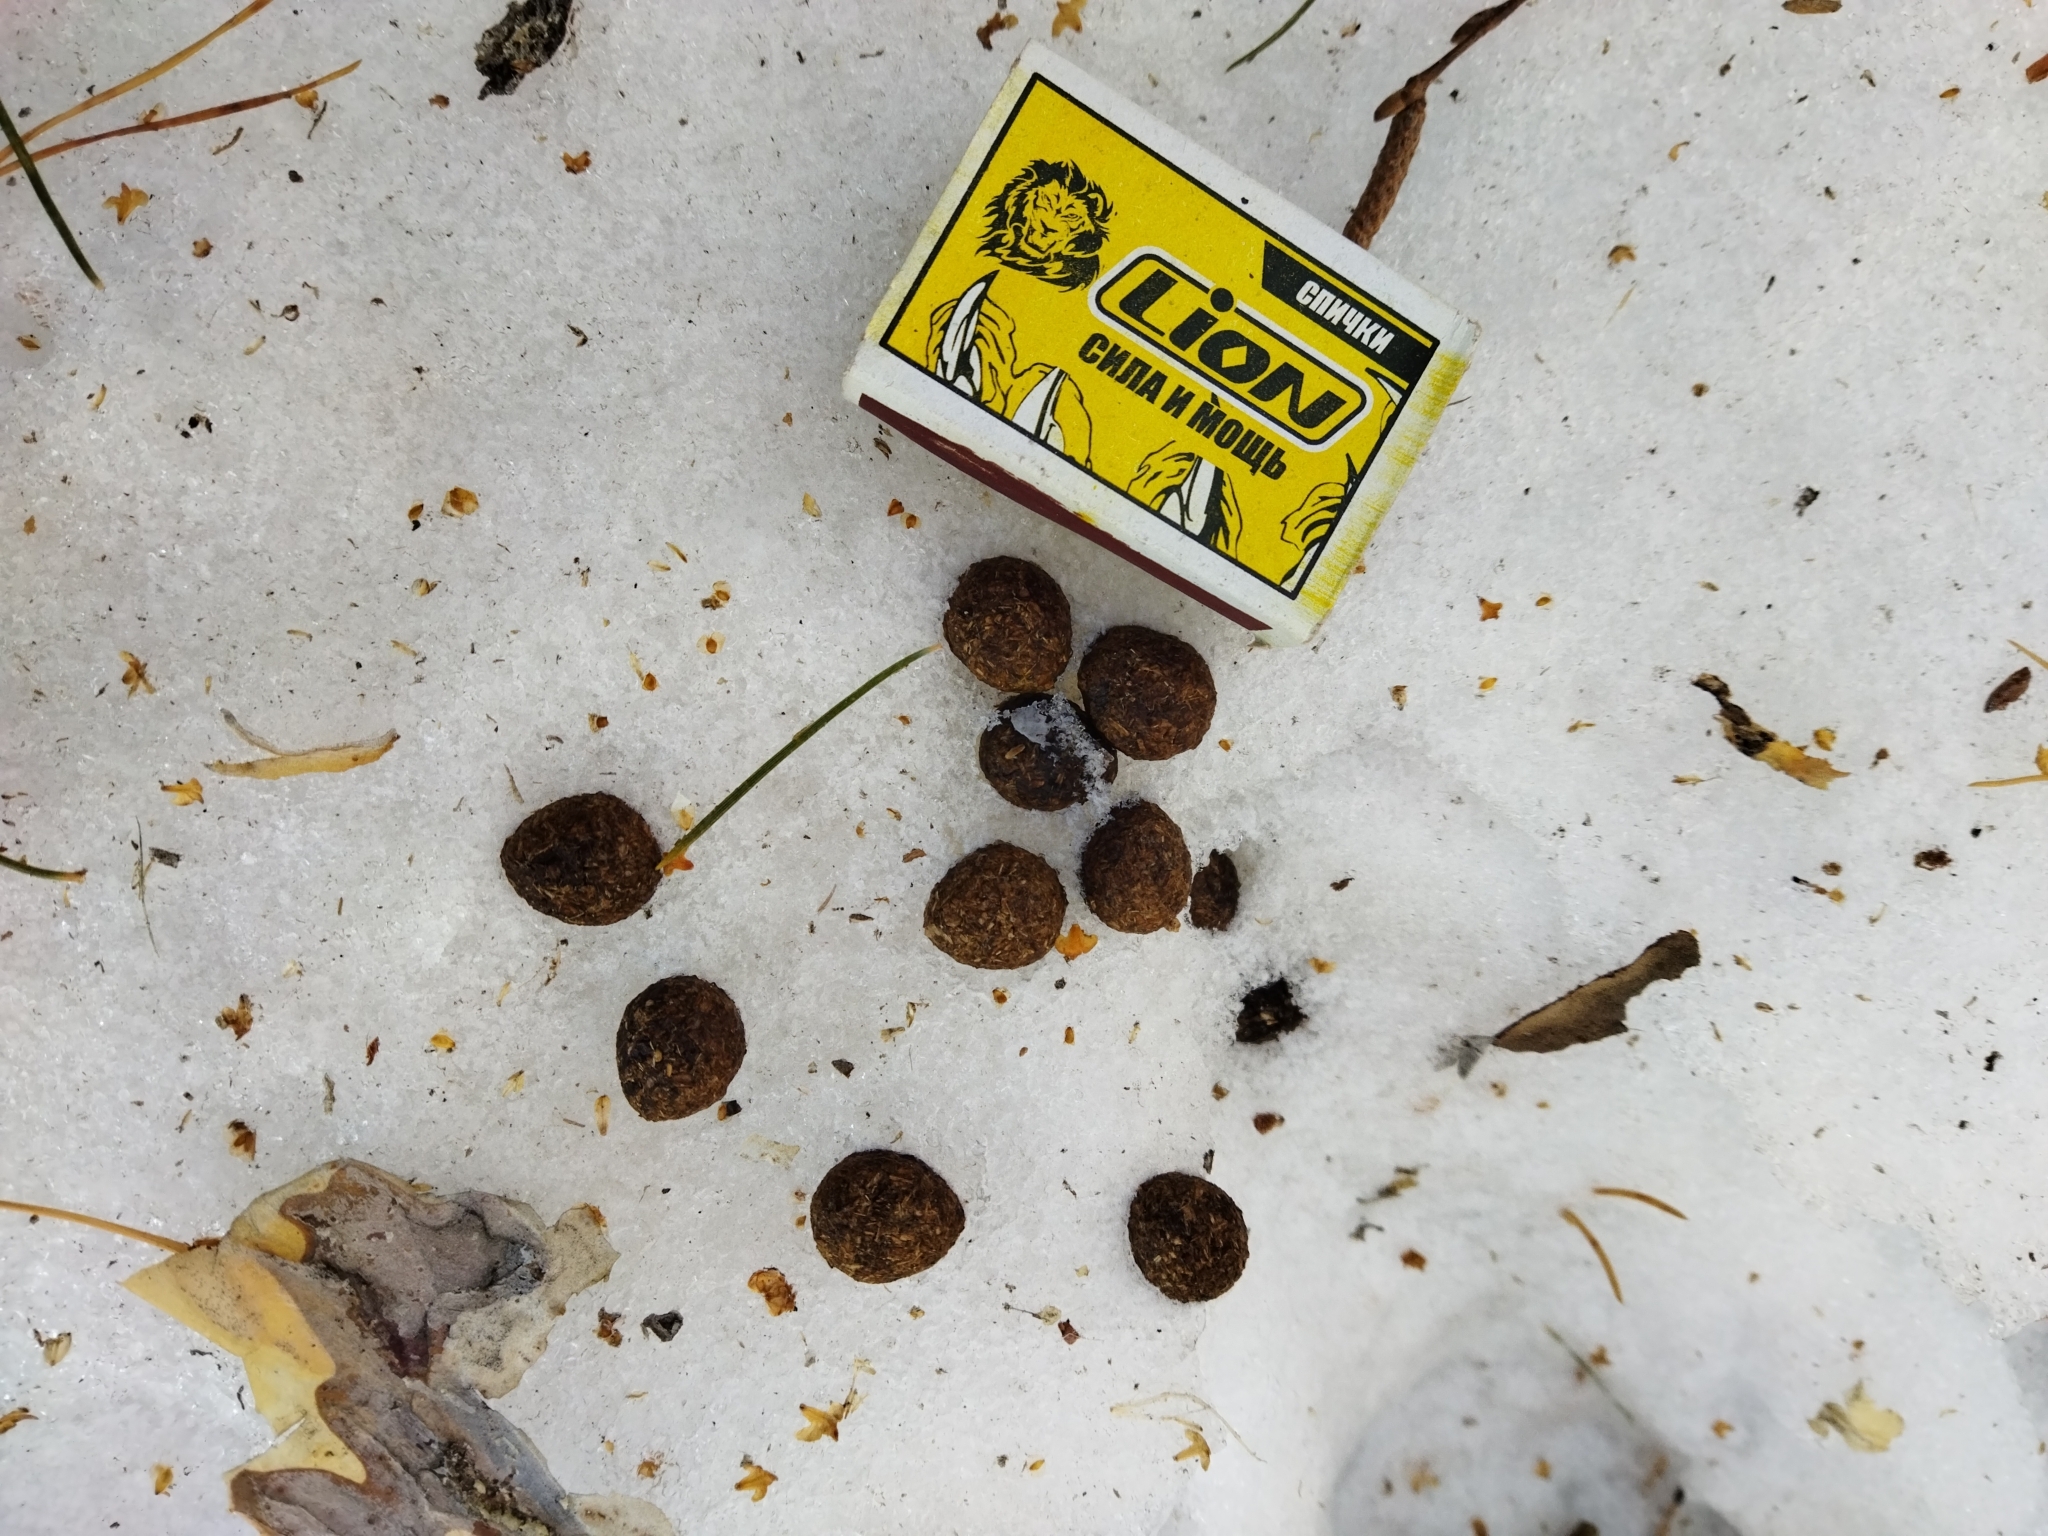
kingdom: Animalia
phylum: Chordata
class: Mammalia
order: Lagomorpha
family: Leporidae
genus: Lepus
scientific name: Lepus europaeus
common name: European hare
